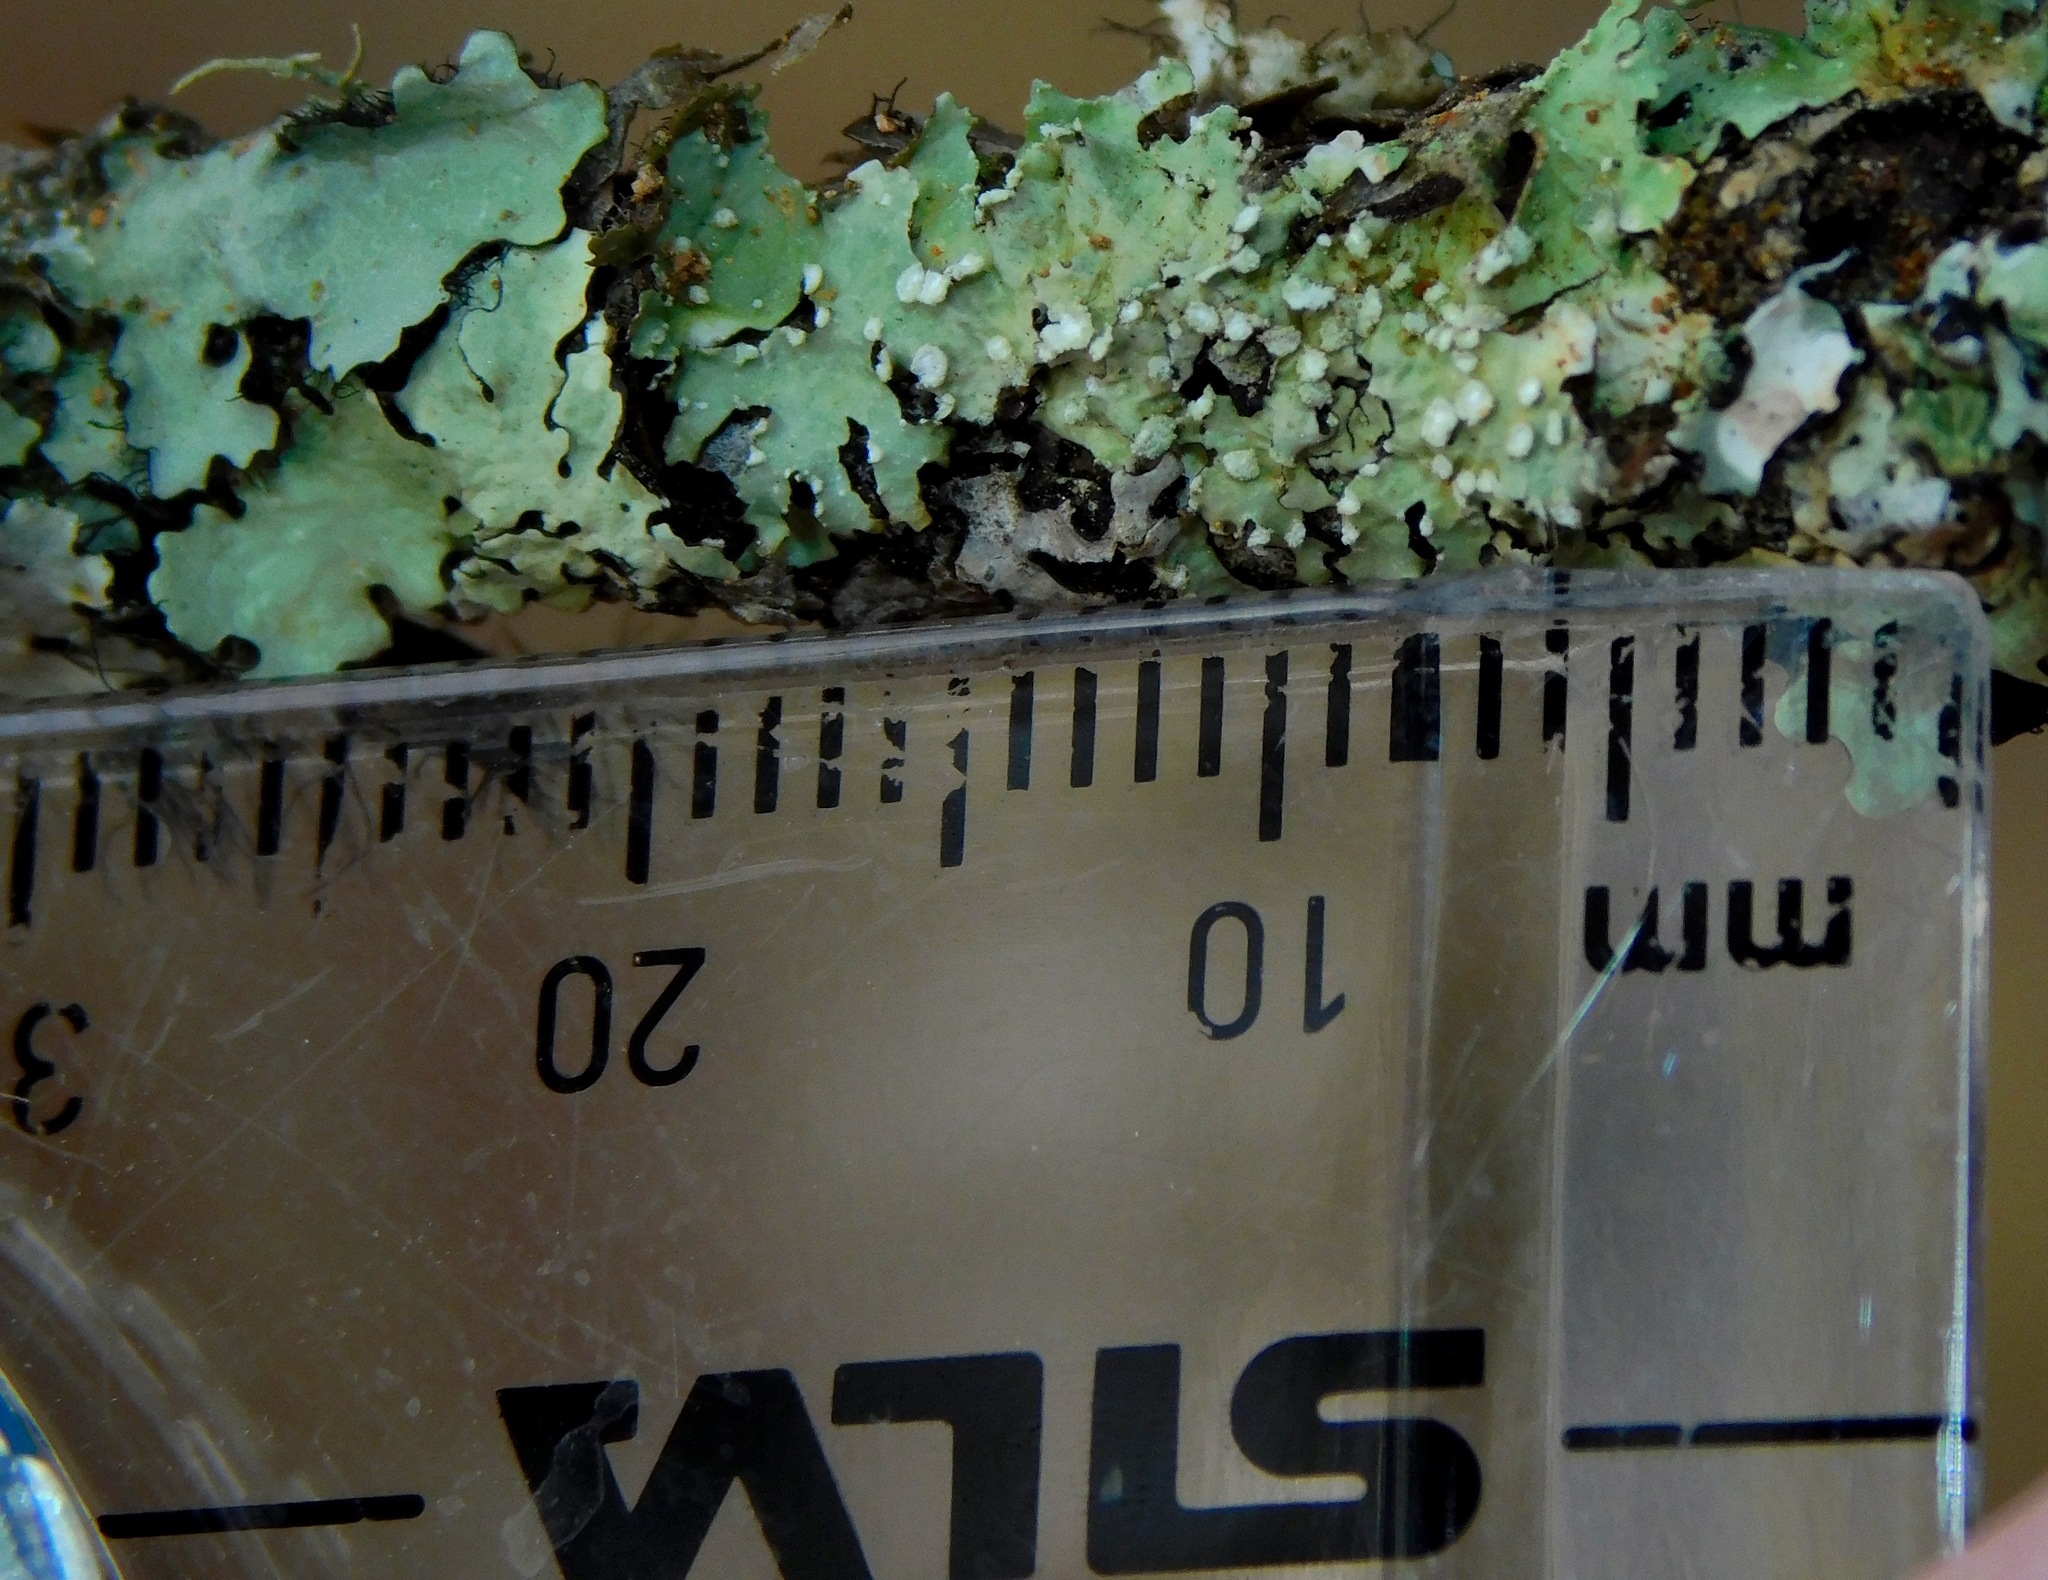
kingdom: Fungi
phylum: Ascomycota
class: Lecanoromycetes
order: Caliciales
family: Caliciaceae
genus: Pyxine
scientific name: Pyxine subcinerea
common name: Mustard lichen
